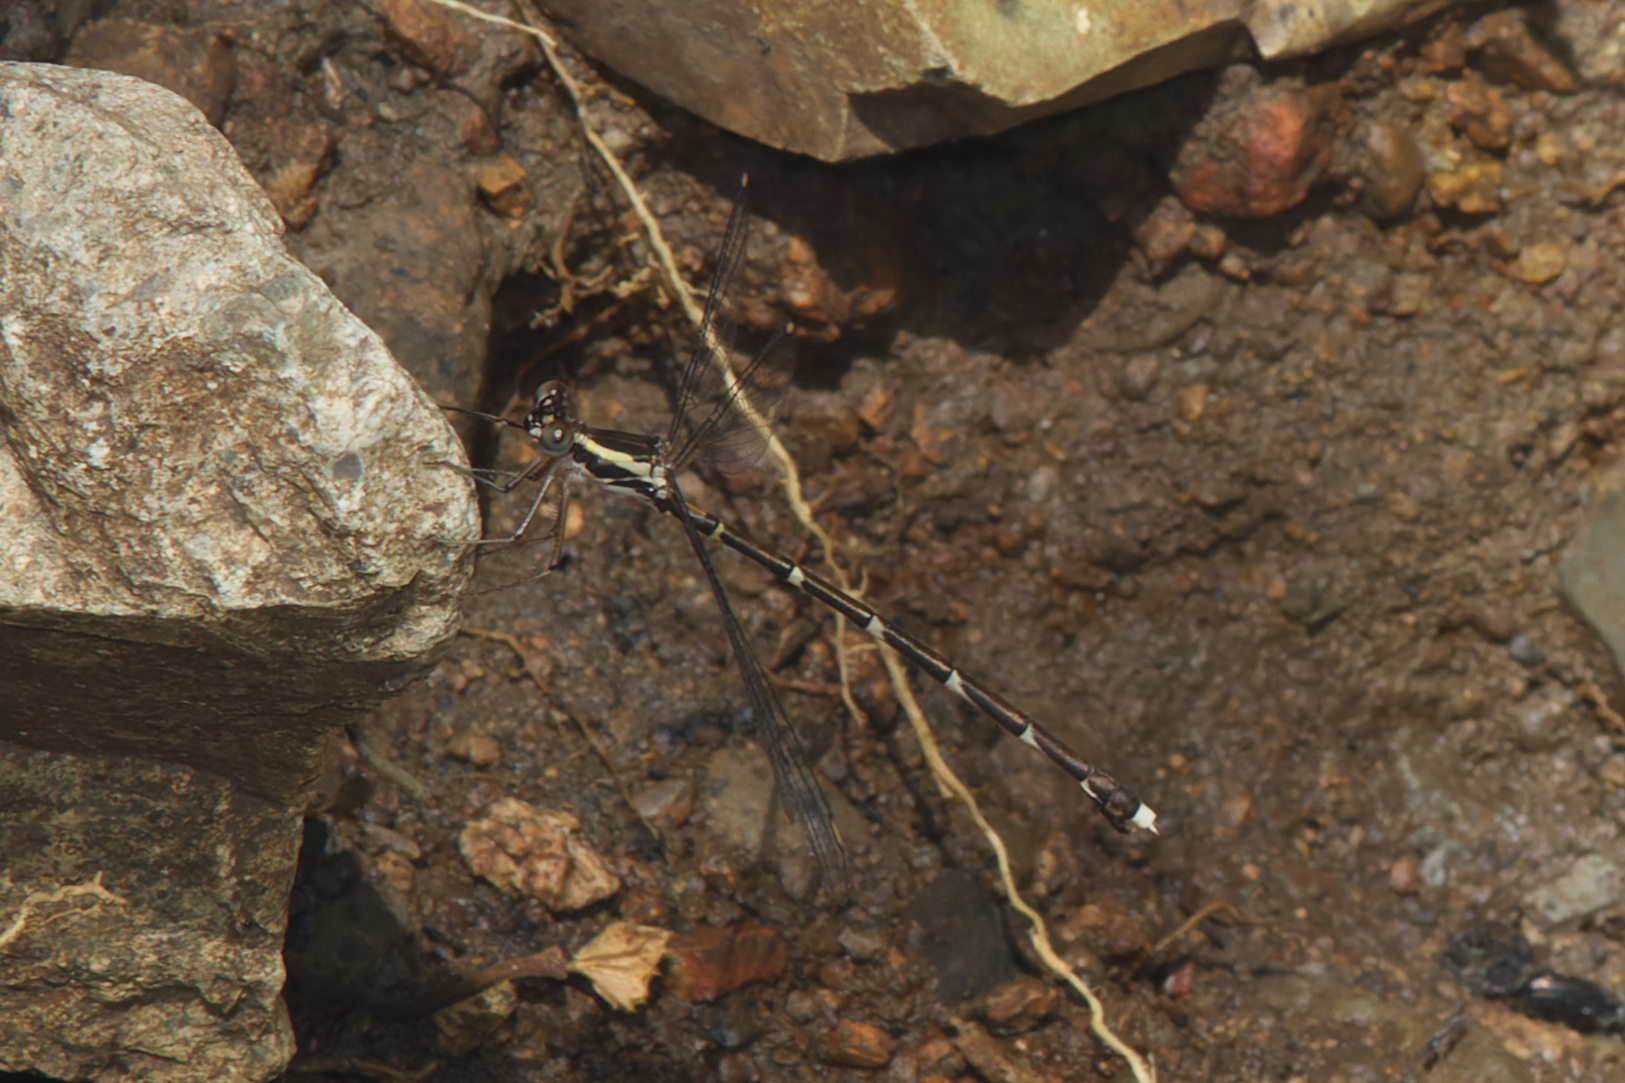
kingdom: Animalia
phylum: Arthropoda
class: Insecta
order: Odonata
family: Synlestidae
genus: Episynlestes
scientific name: Episynlestes albicaudus
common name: Southern whitetip
